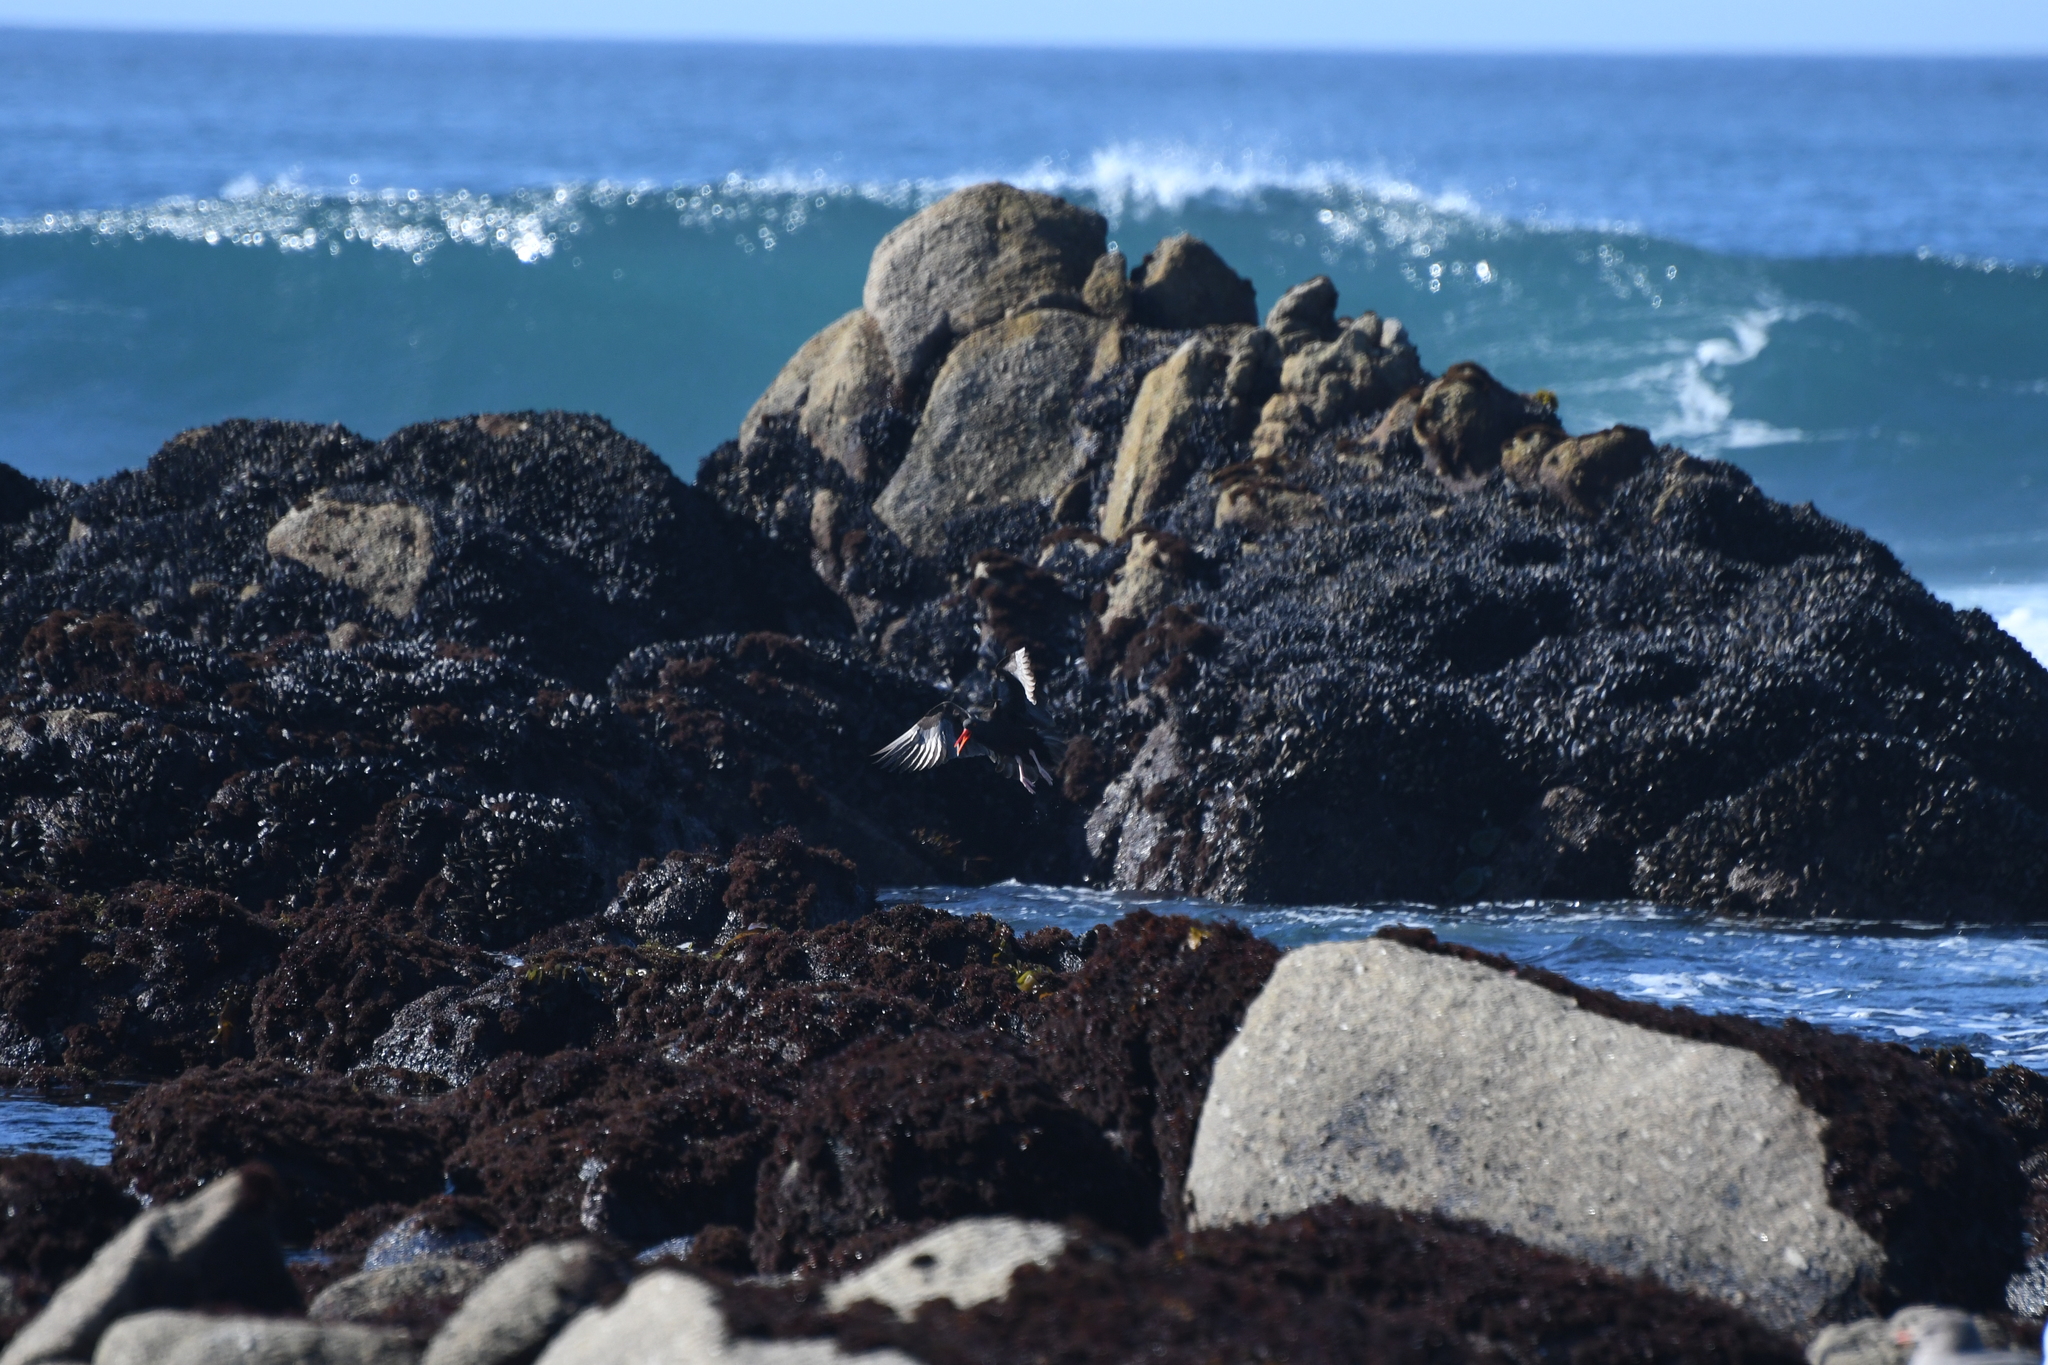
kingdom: Animalia
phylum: Chordata
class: Aves
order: Charadriiformes
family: Haematopodidae
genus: Haematopus
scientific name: Haematopus bachmani
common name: Black oystercatcher
